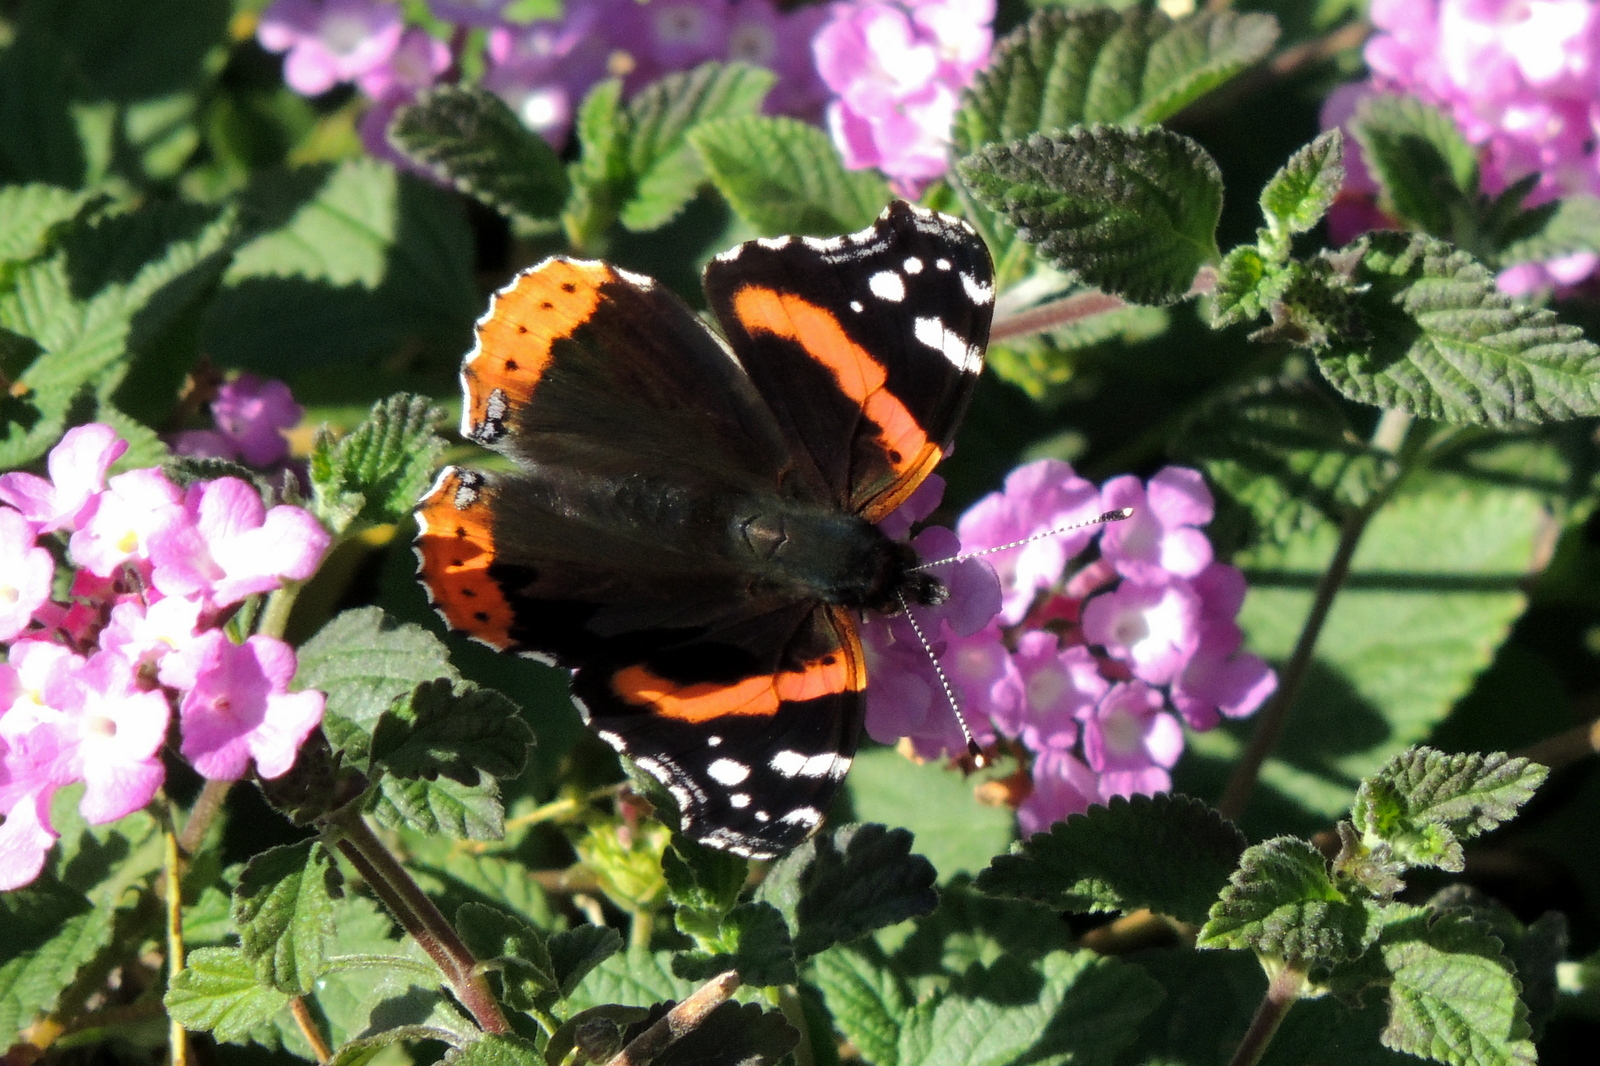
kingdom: Animalia
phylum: Arthropoda
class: Insecta
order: Lepidoptera
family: Nymphalidae
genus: Vanessa
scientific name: Vanessa atalanta
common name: Red admiral
